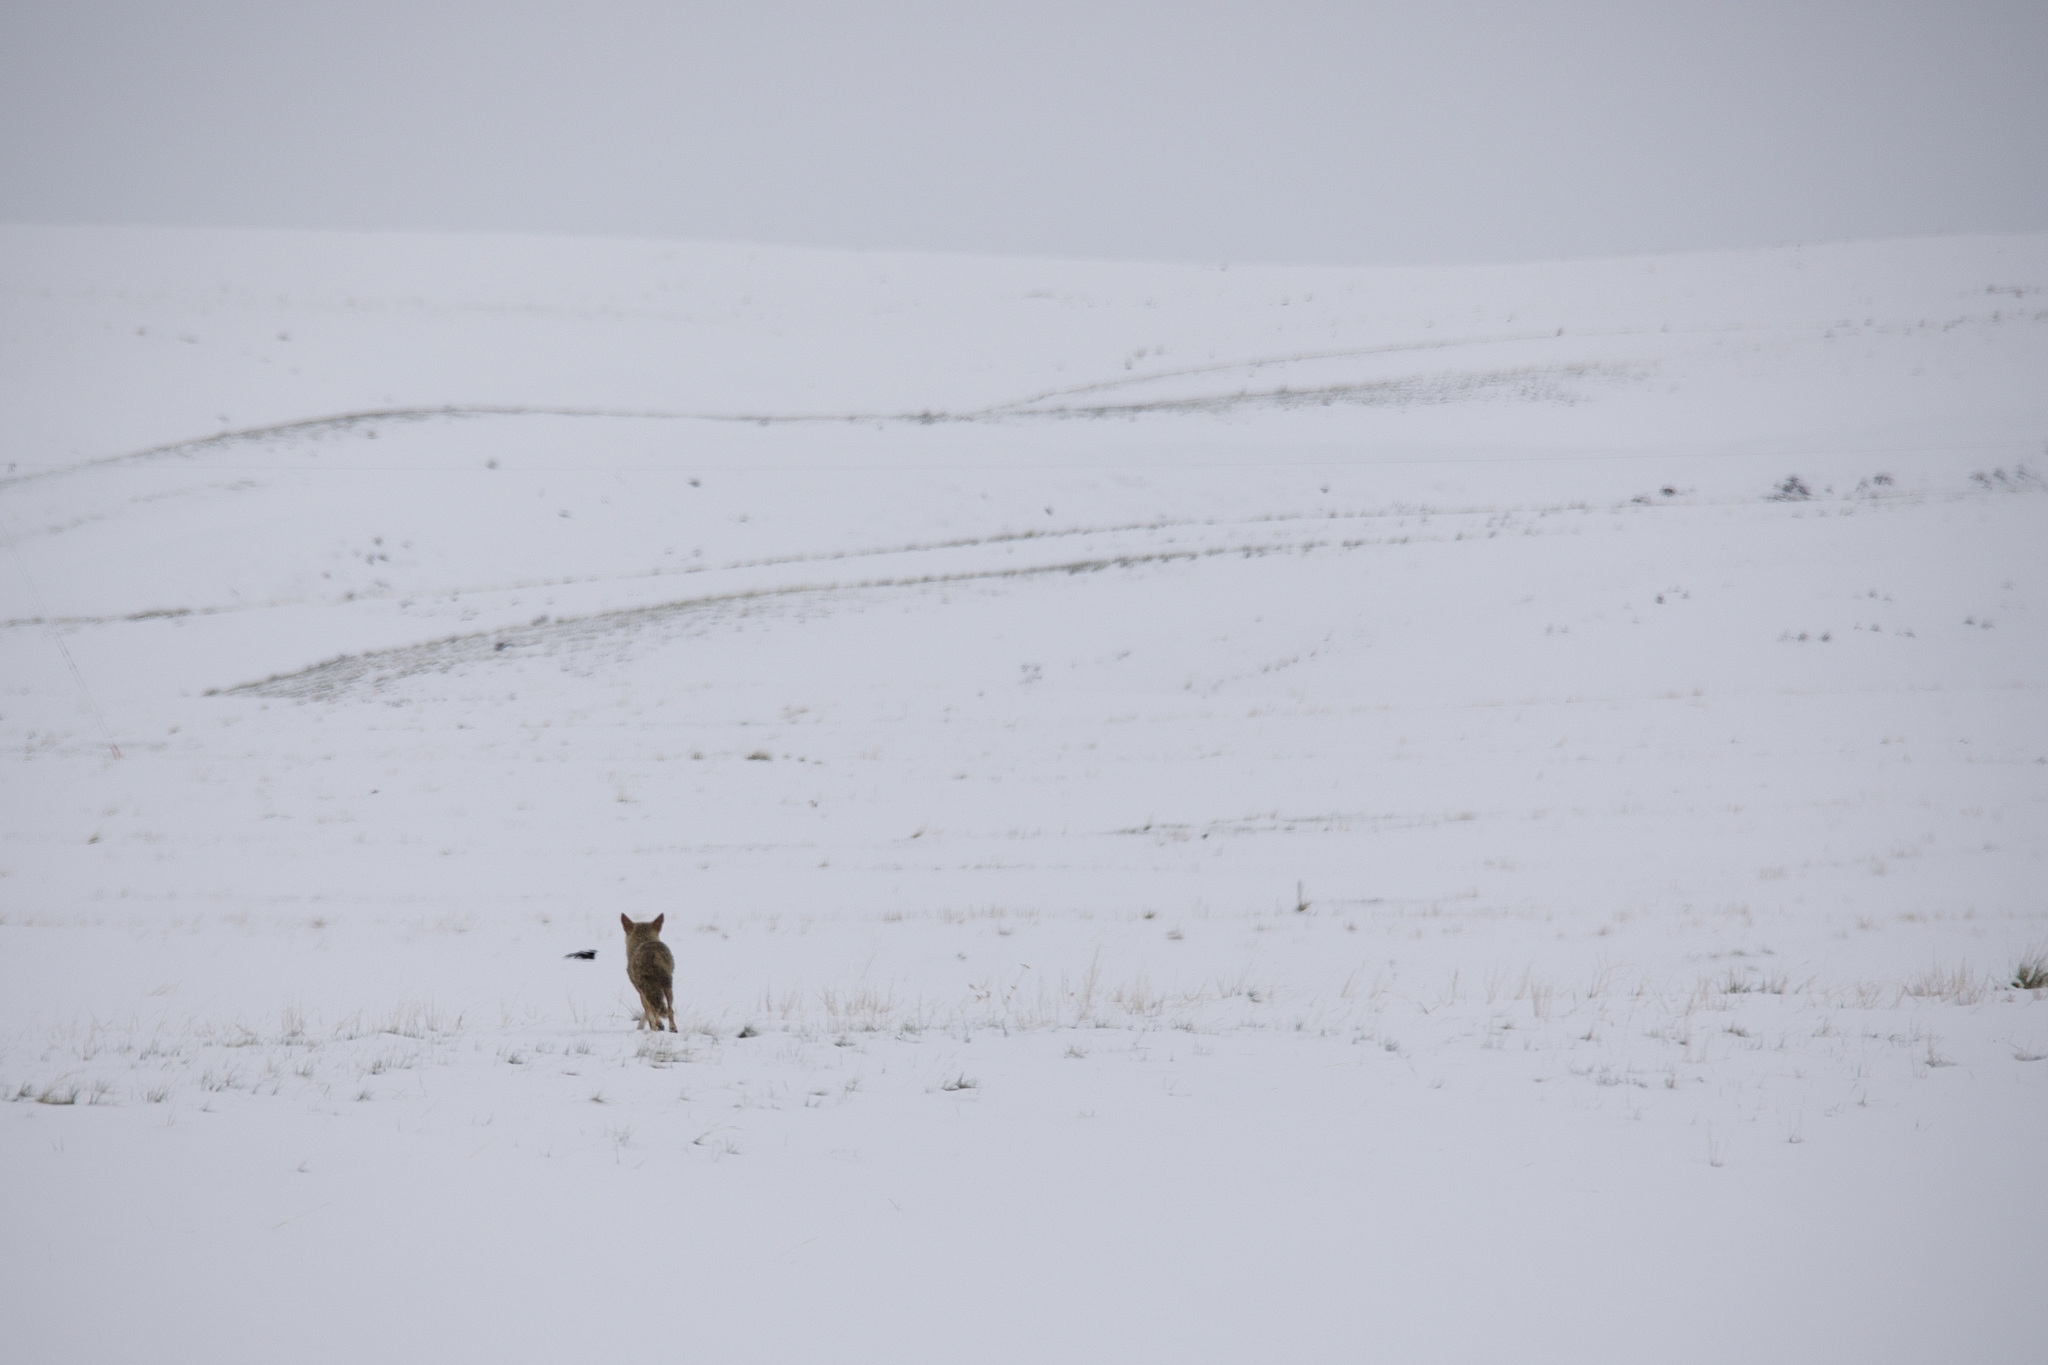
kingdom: Animalia
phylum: Chordata
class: Mammalia
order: Carnivora
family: Canidae
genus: Canis
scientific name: Canis latrans
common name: Coyote
